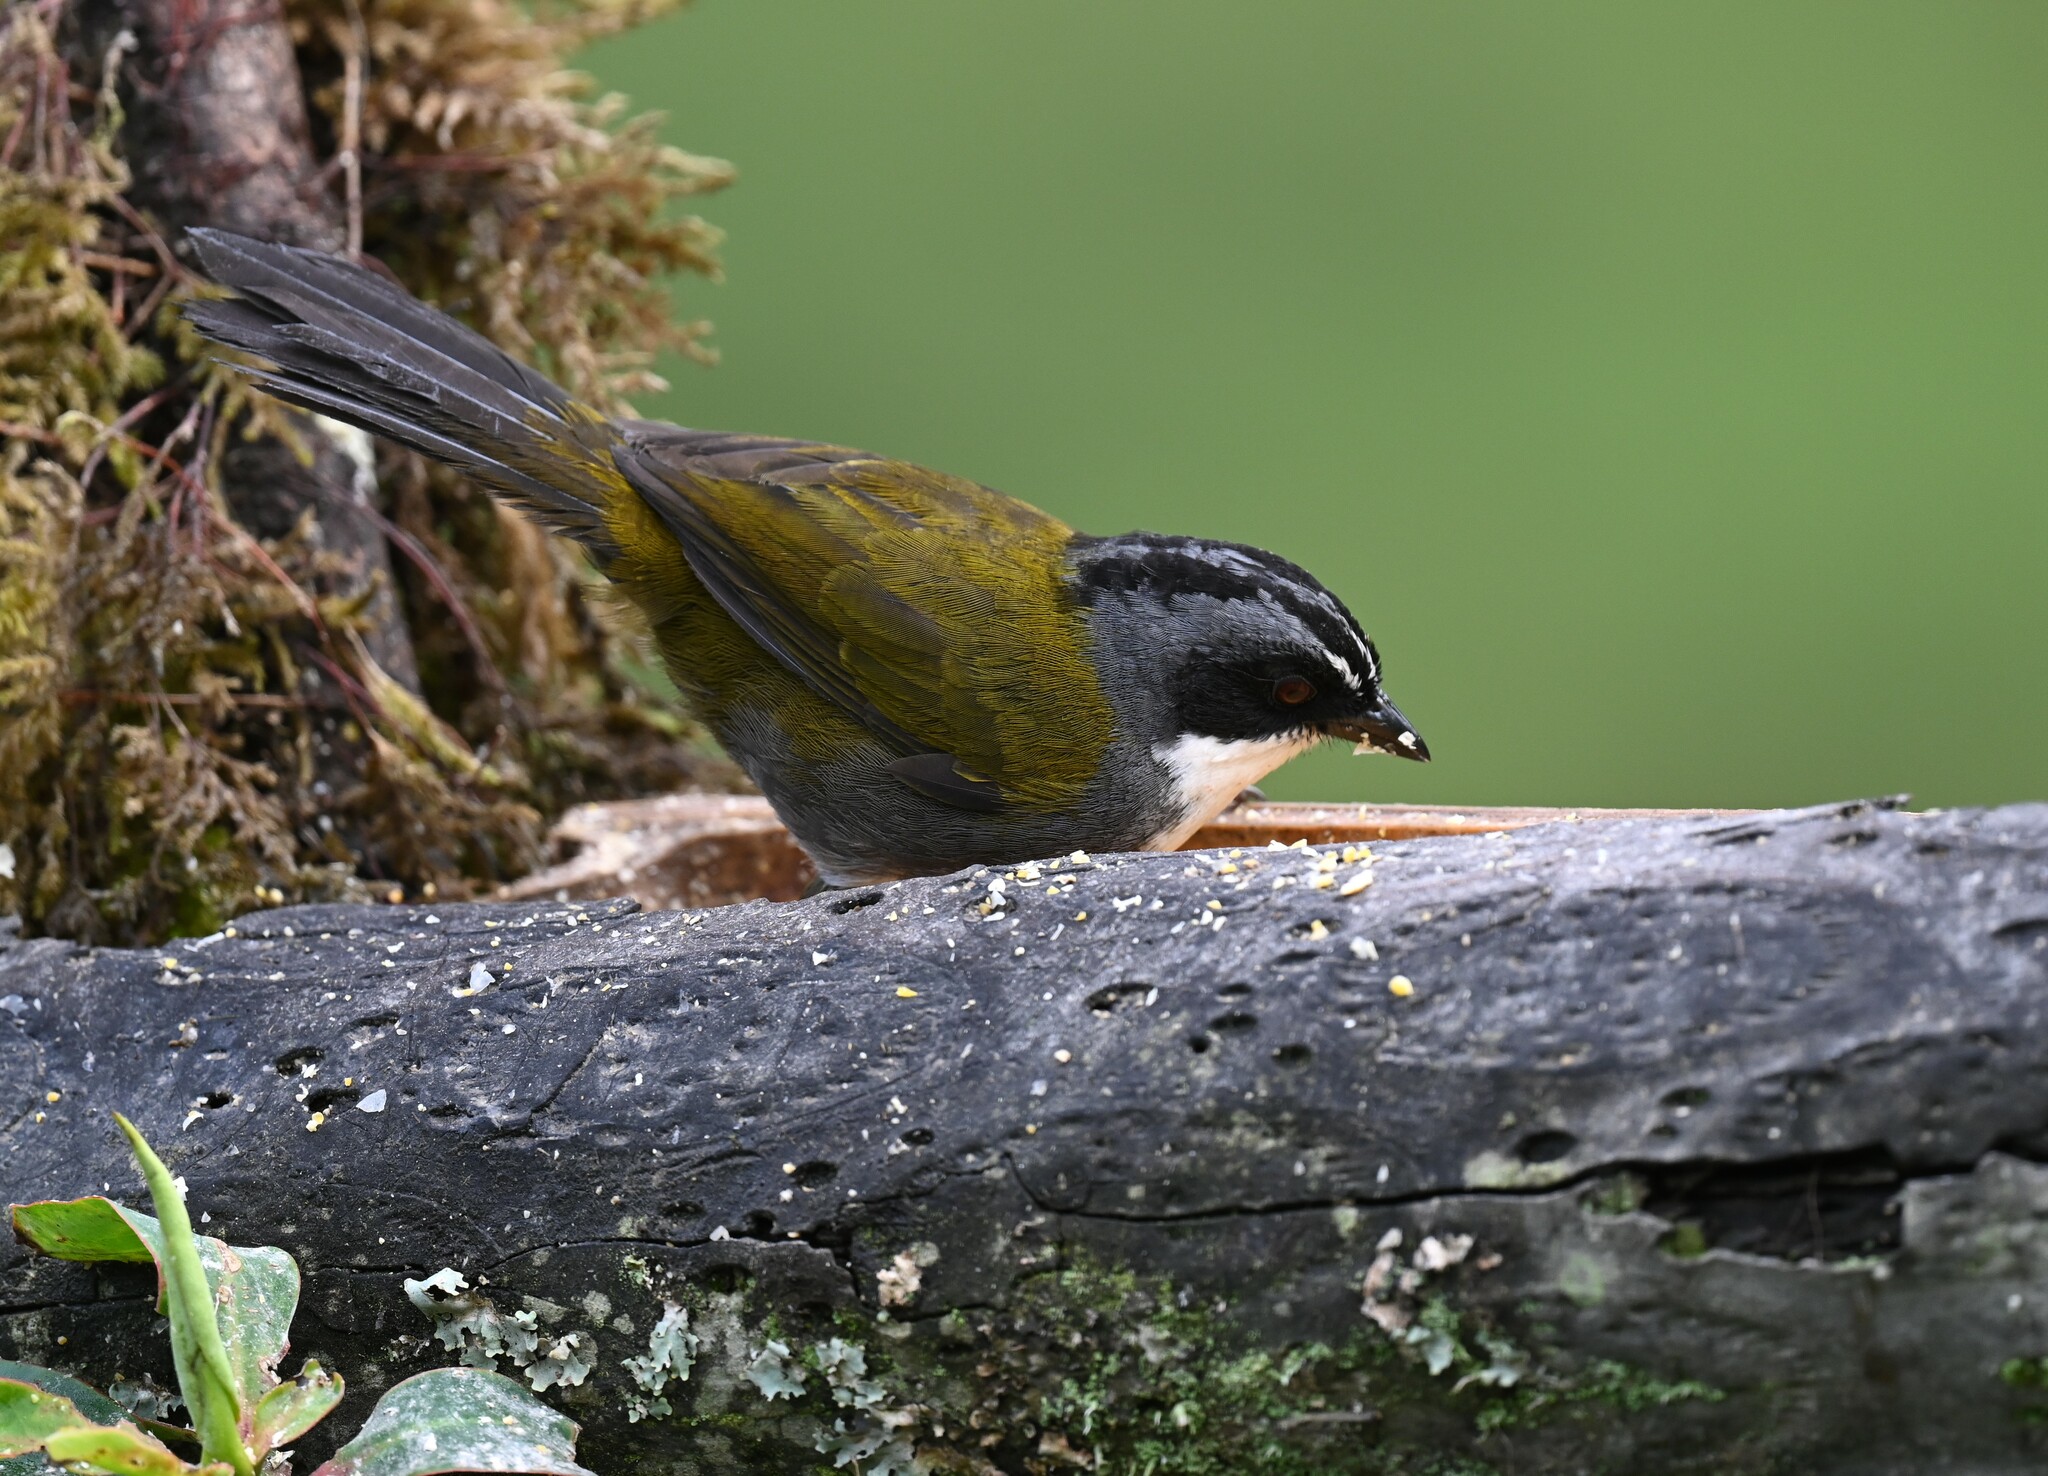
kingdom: Animalia
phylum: Chordata
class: Aves
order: Passeriformes
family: Passerellidae
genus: Arremon
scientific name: Arremon assimilis
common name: Grey-browed brushfinch
